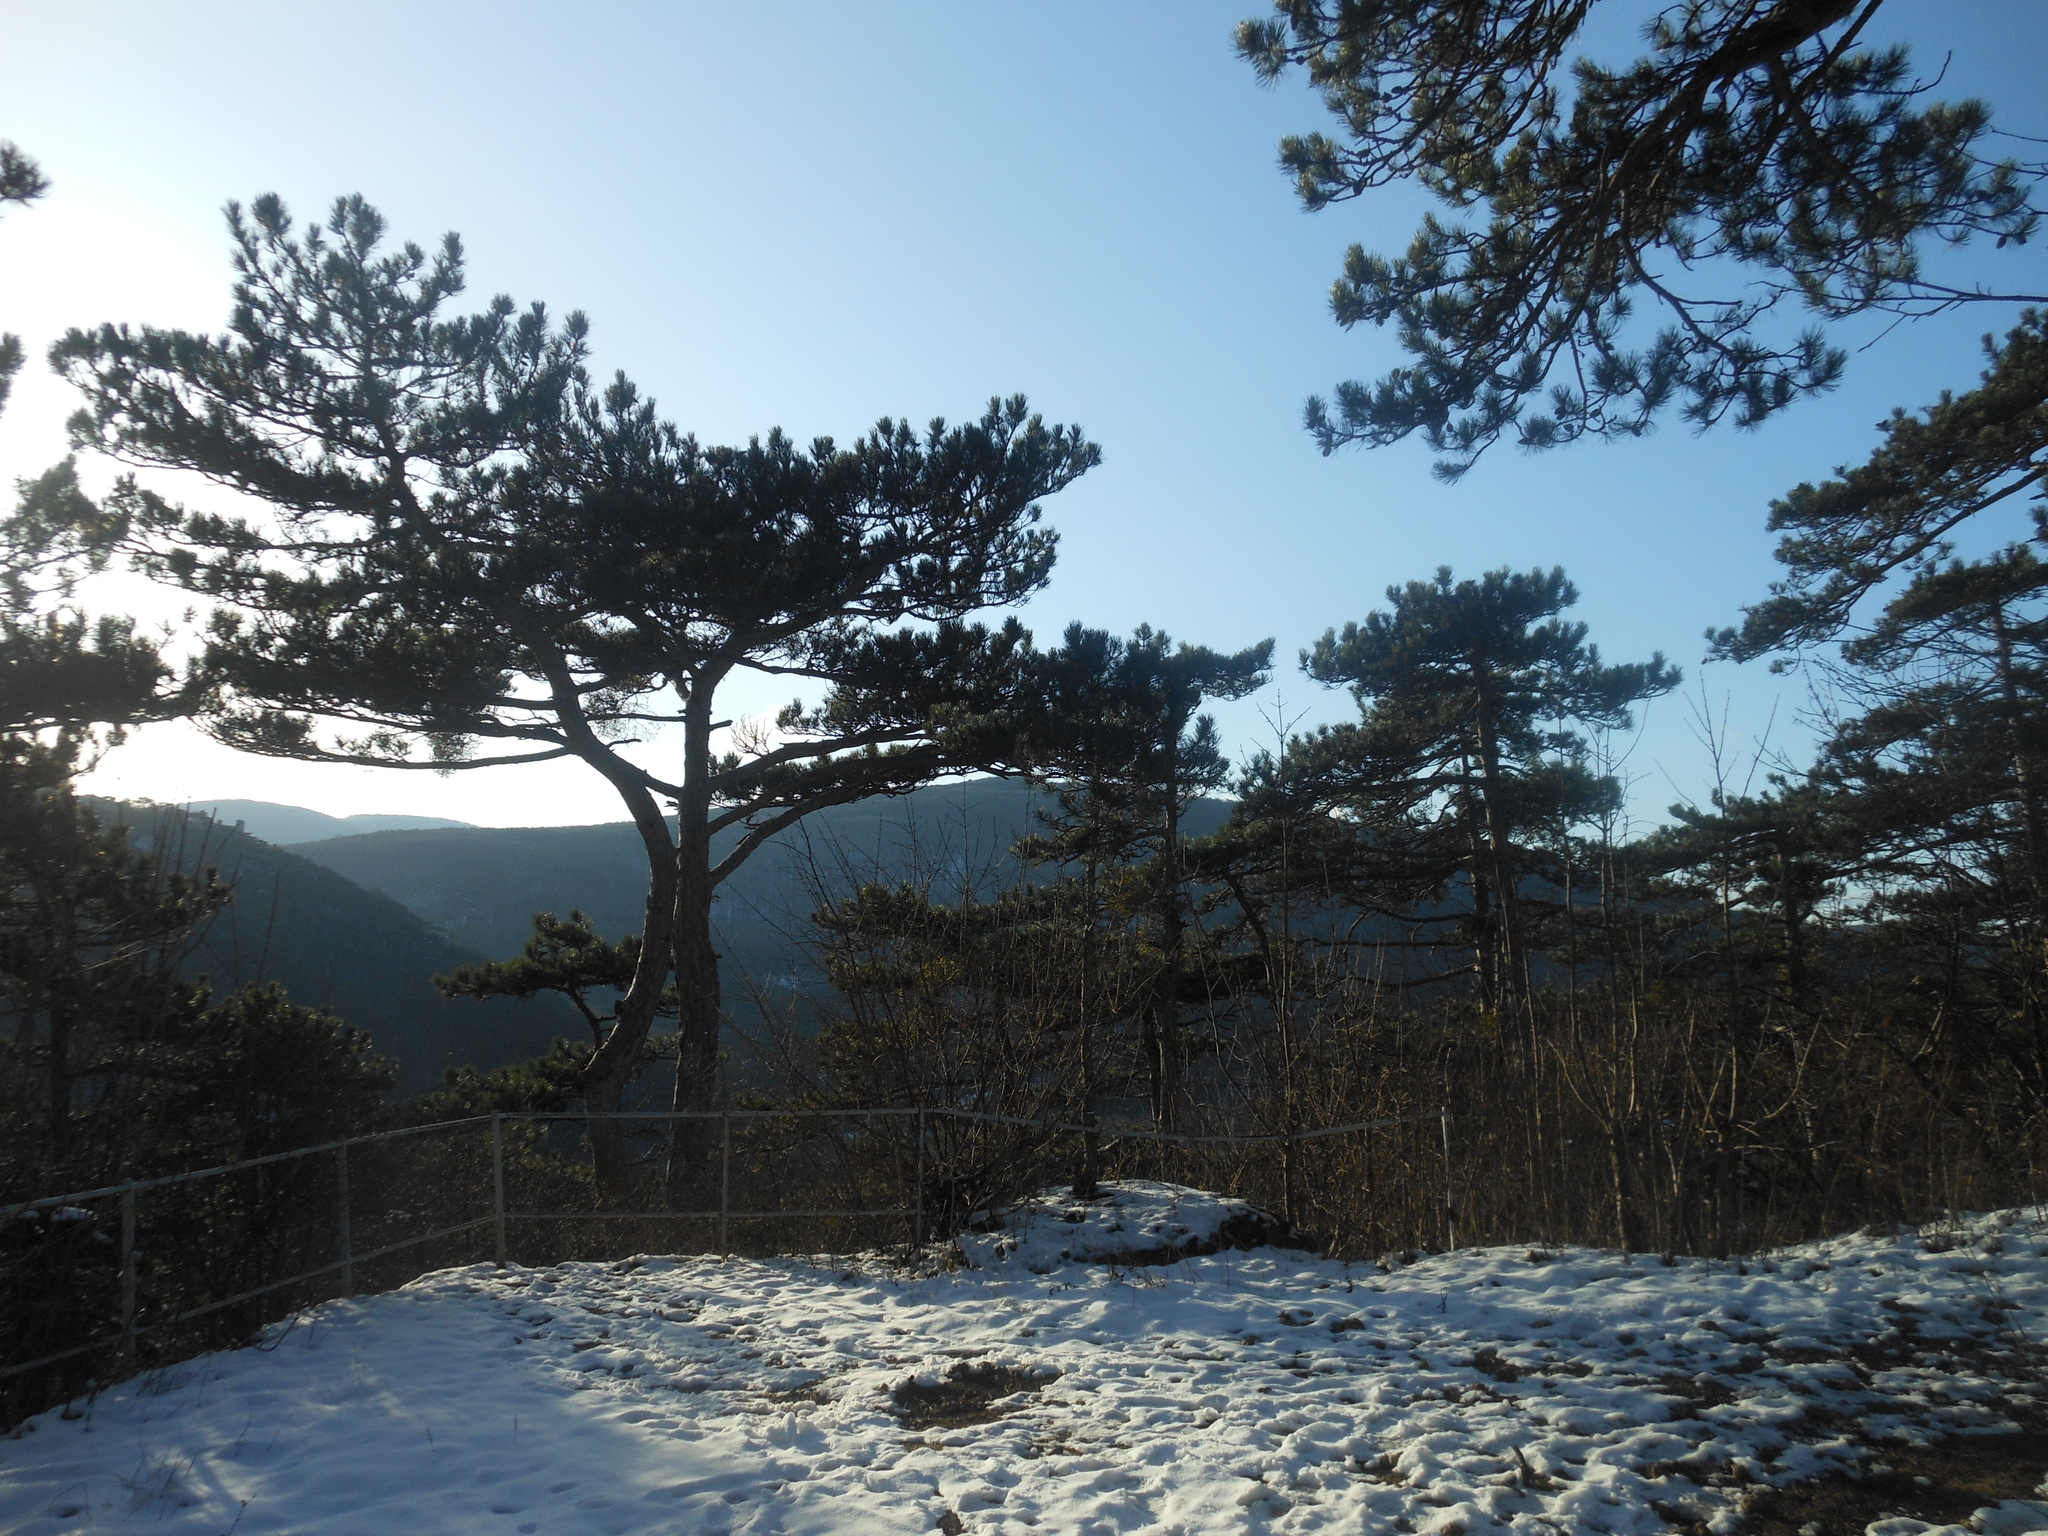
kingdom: Plantae
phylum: Tracheophyta
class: Pinopsida
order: Pinales
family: Pinaceae
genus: Pinus
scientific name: Pinus nigra
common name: Austrian pine
